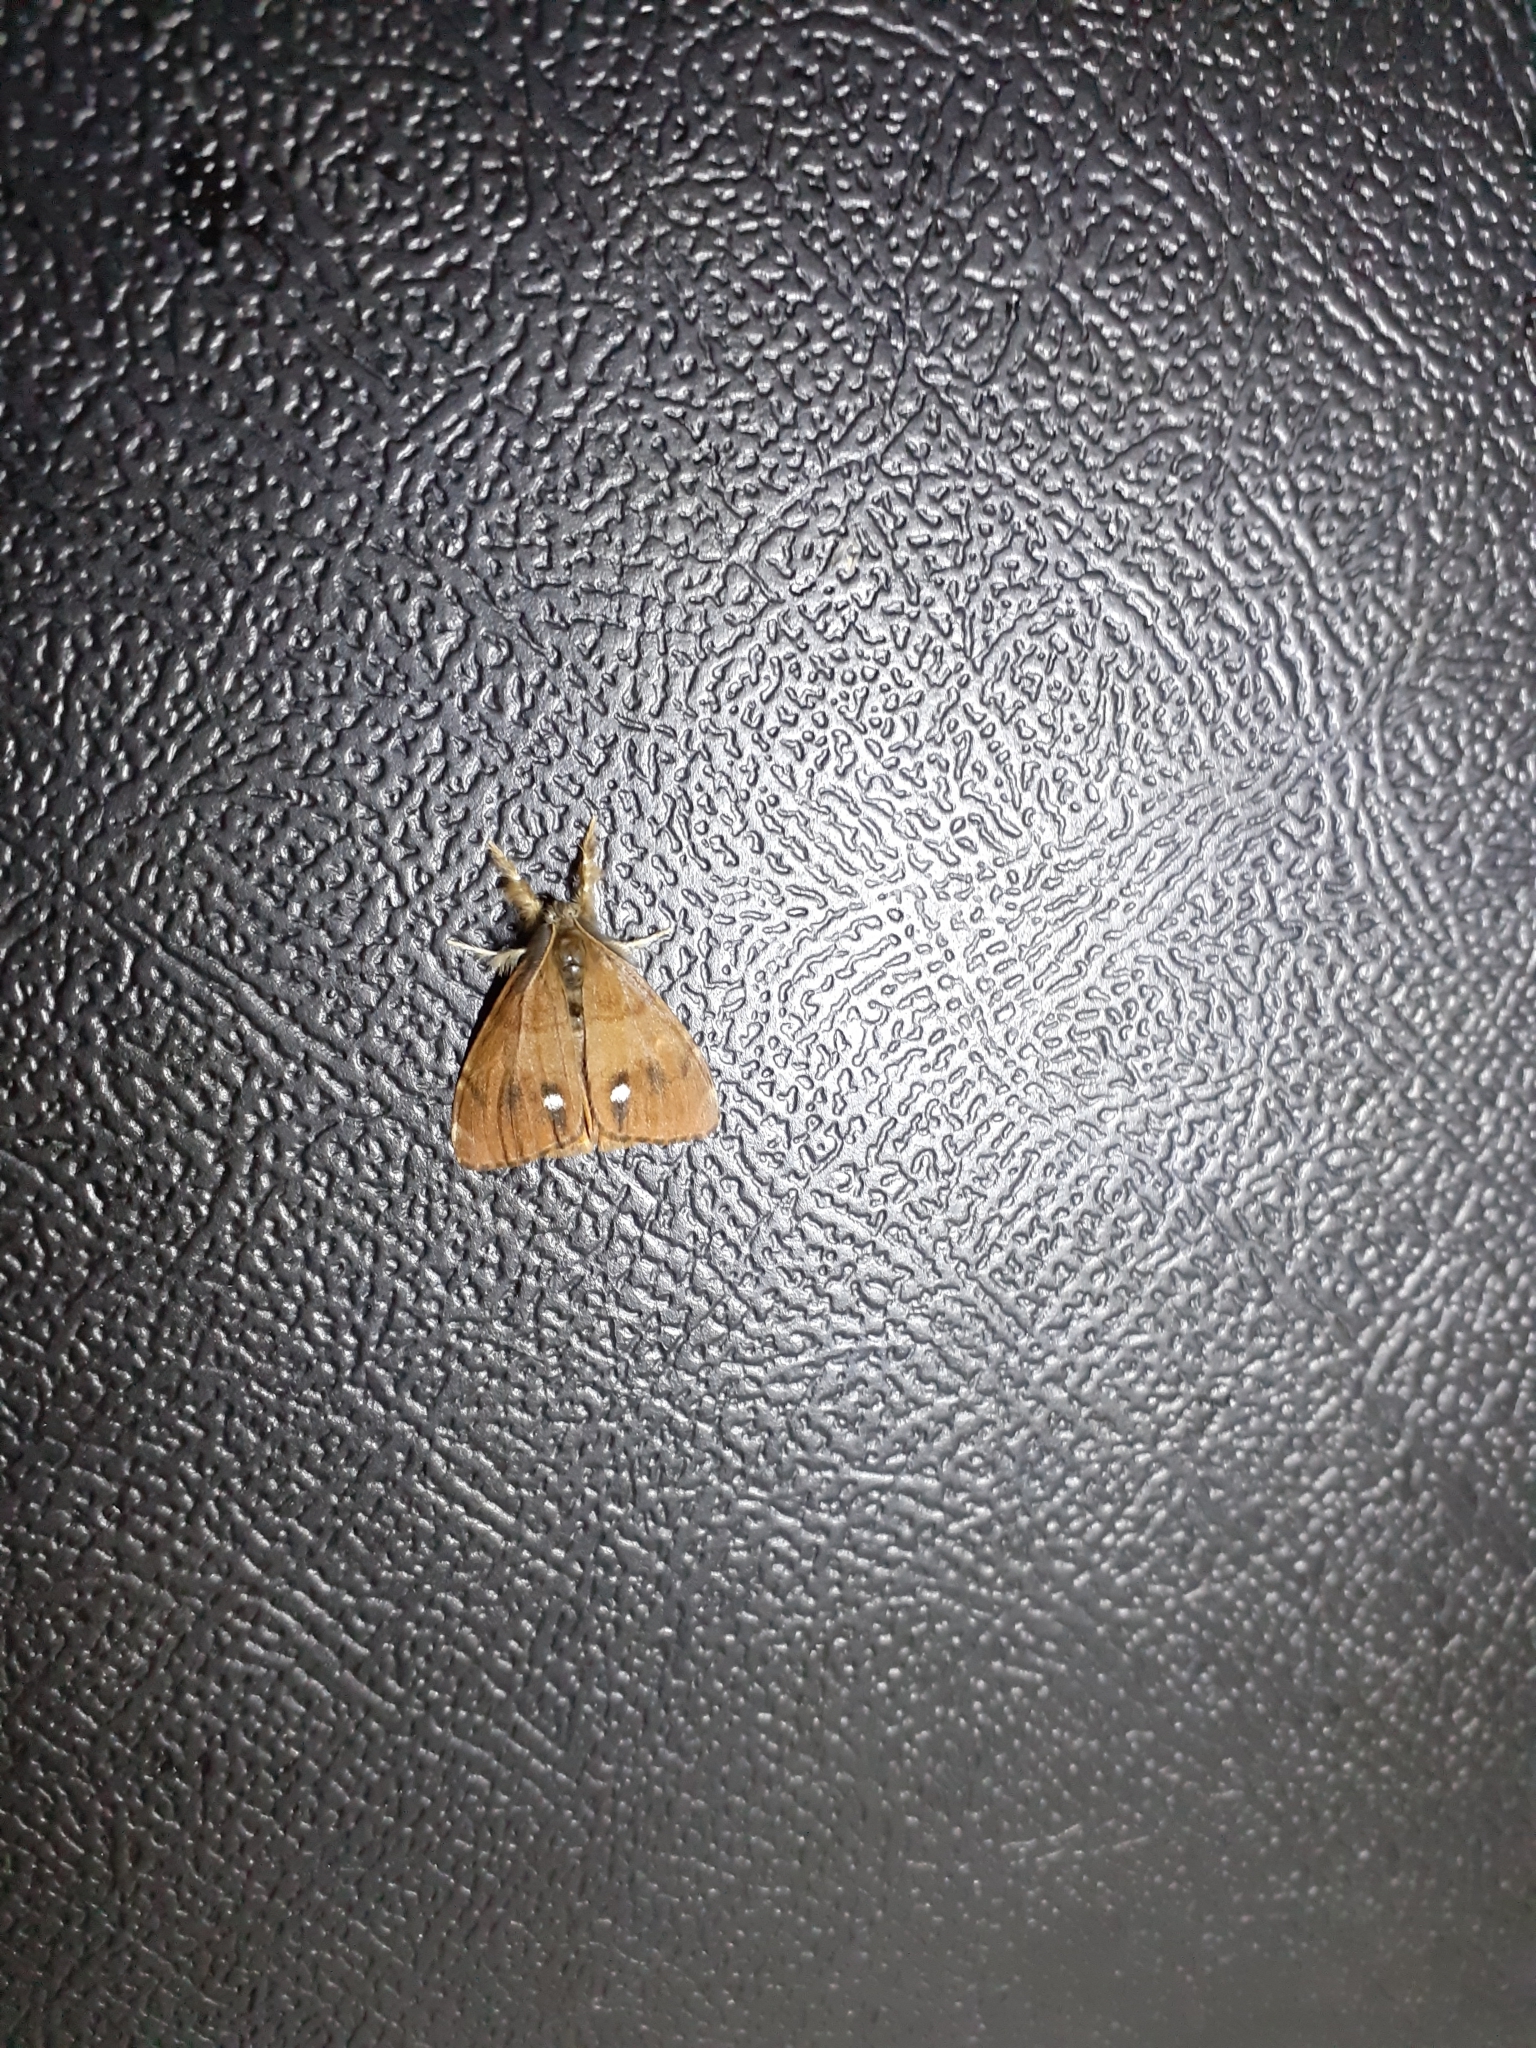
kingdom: Animalia
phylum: Arthropoda
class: Insecta
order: Lepidoptera
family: Erebidae
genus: Orgyia
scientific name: Orgyia antiqua
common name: Vapourer
